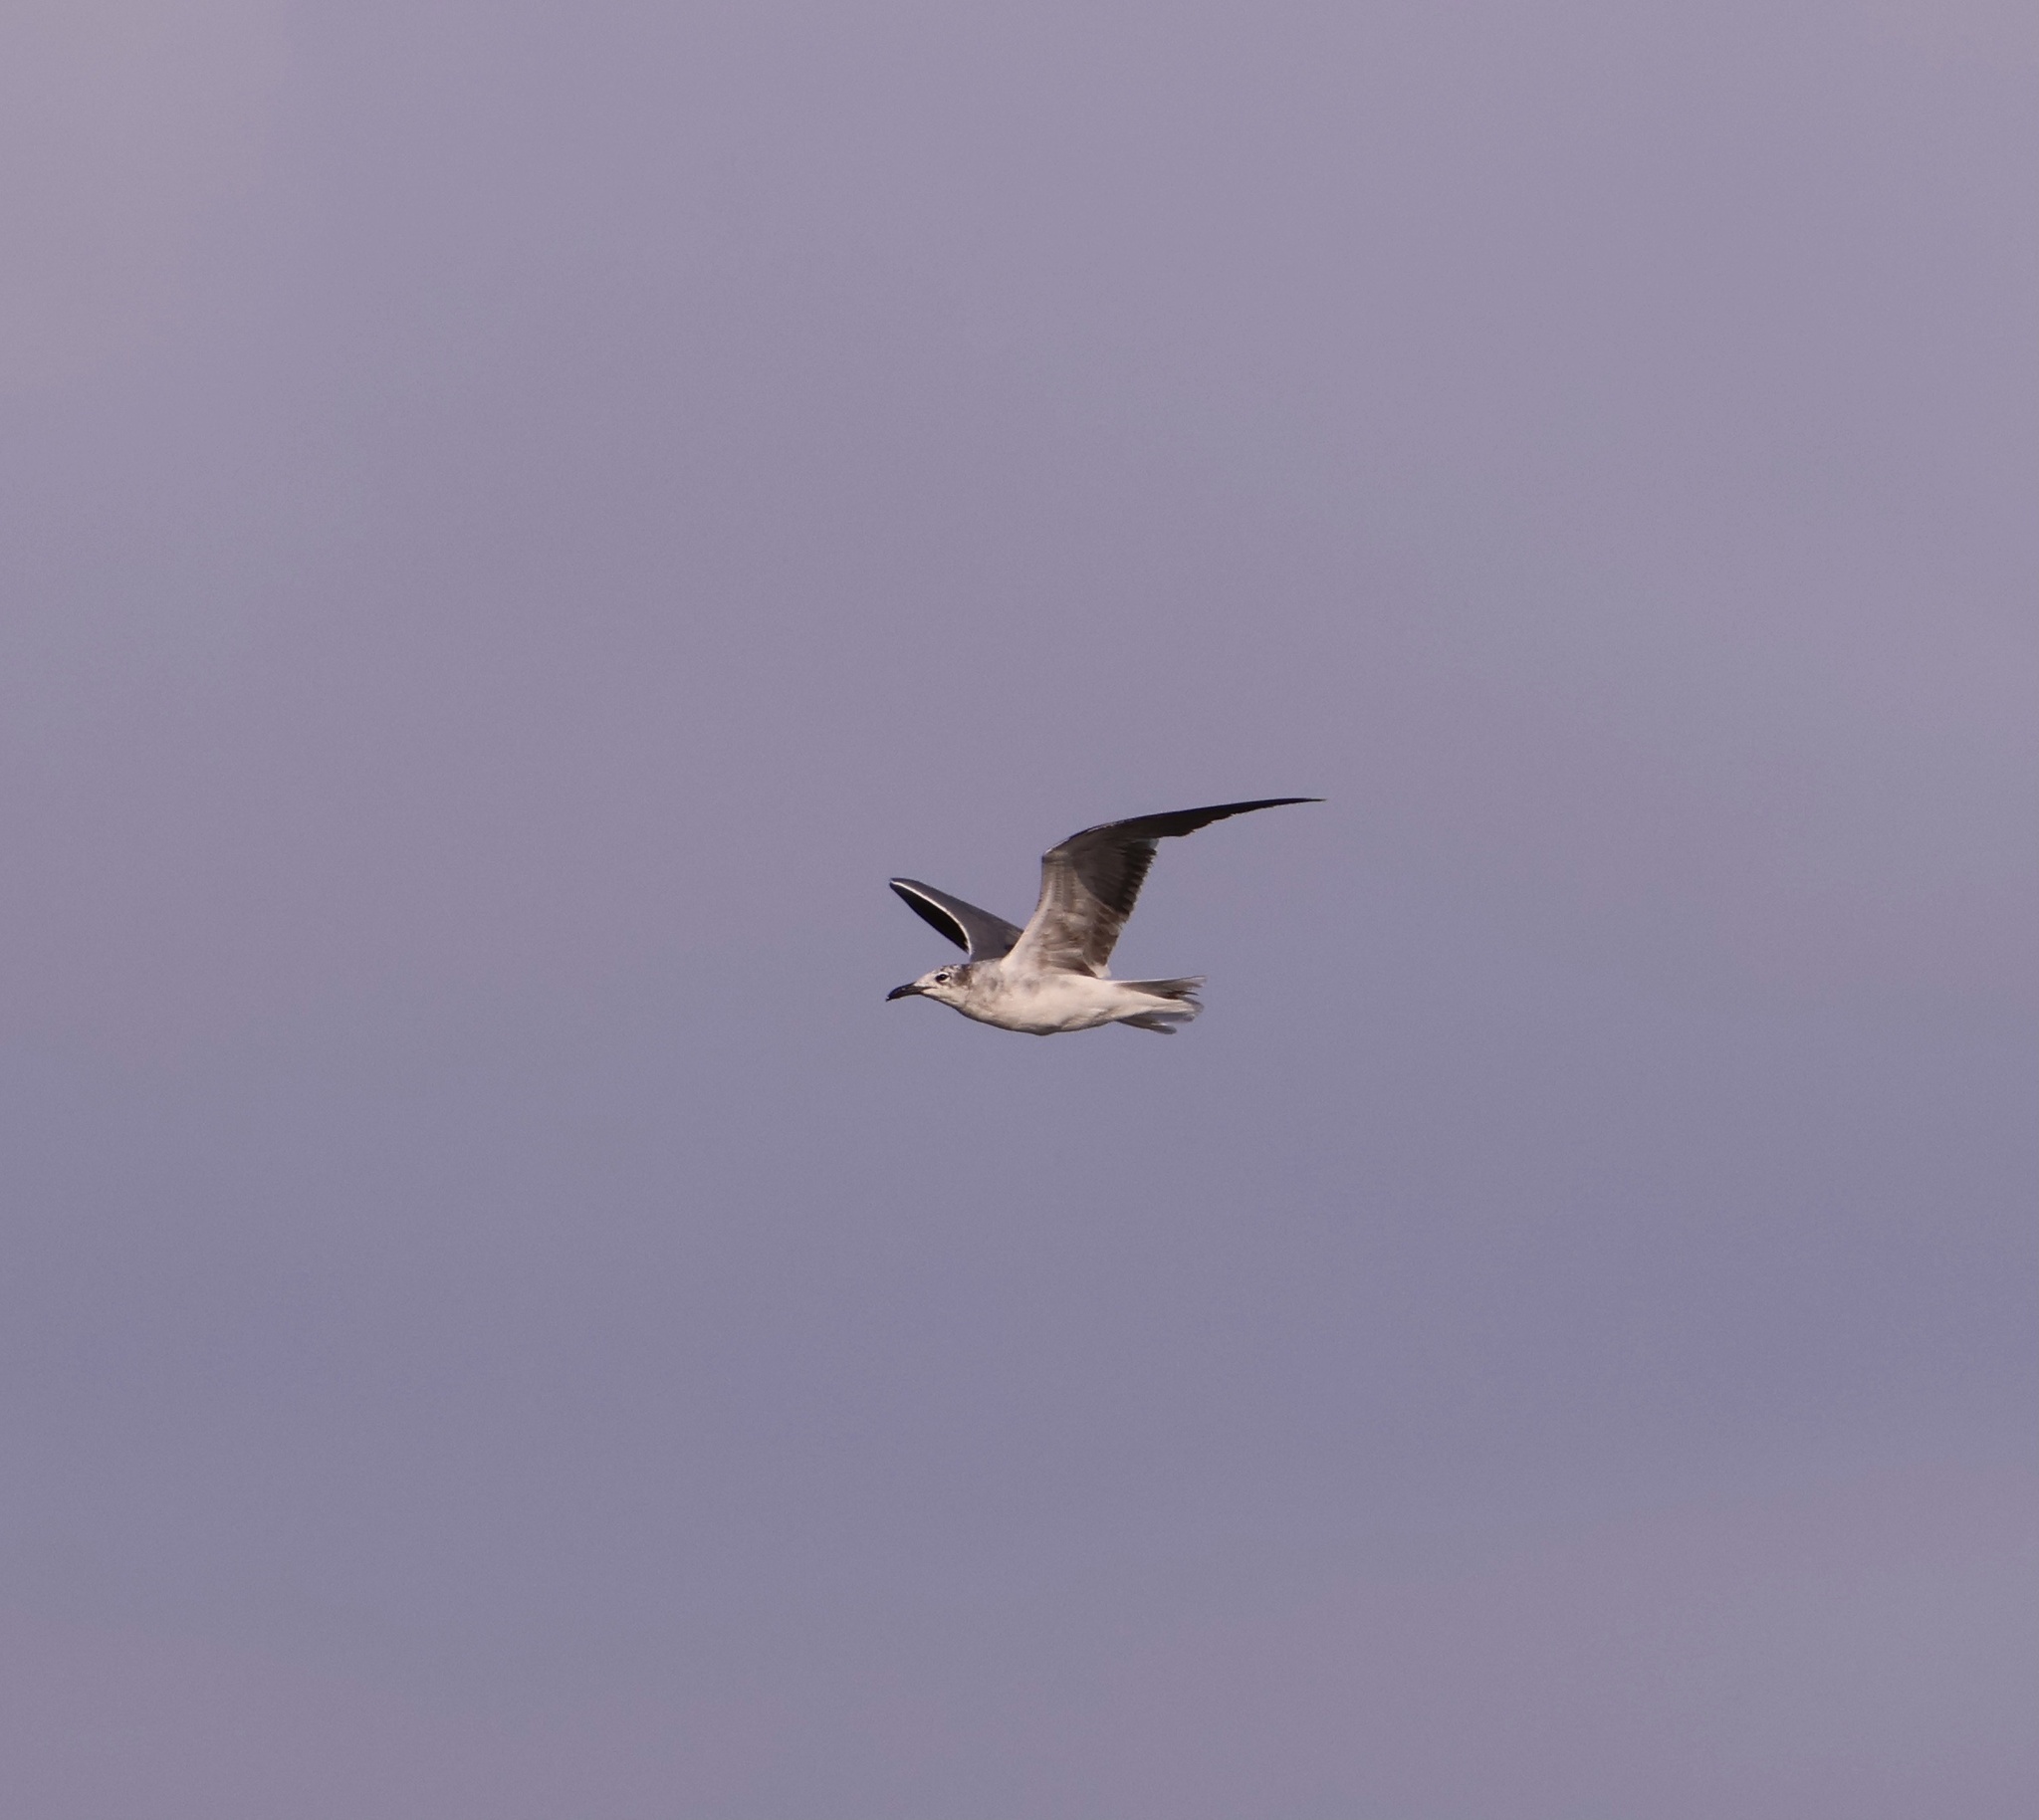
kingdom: Animalia
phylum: Chordata
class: Aves
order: Charadriiformes
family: Laridae
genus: Leucophaeus
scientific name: Leucophaeus atricilla
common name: Laughing gull
